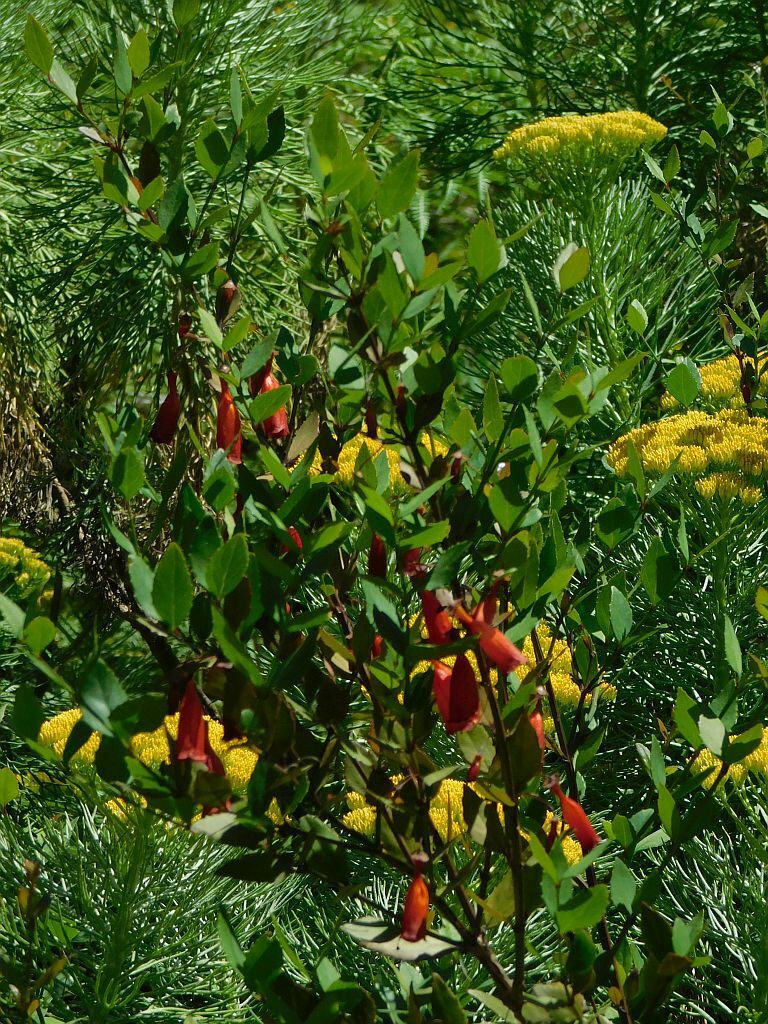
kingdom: Plantae
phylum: Tracheophyta
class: Magnoliopsida
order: Lamiales
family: Stilbaceae
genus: Halleria
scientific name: Halleria elliptica
